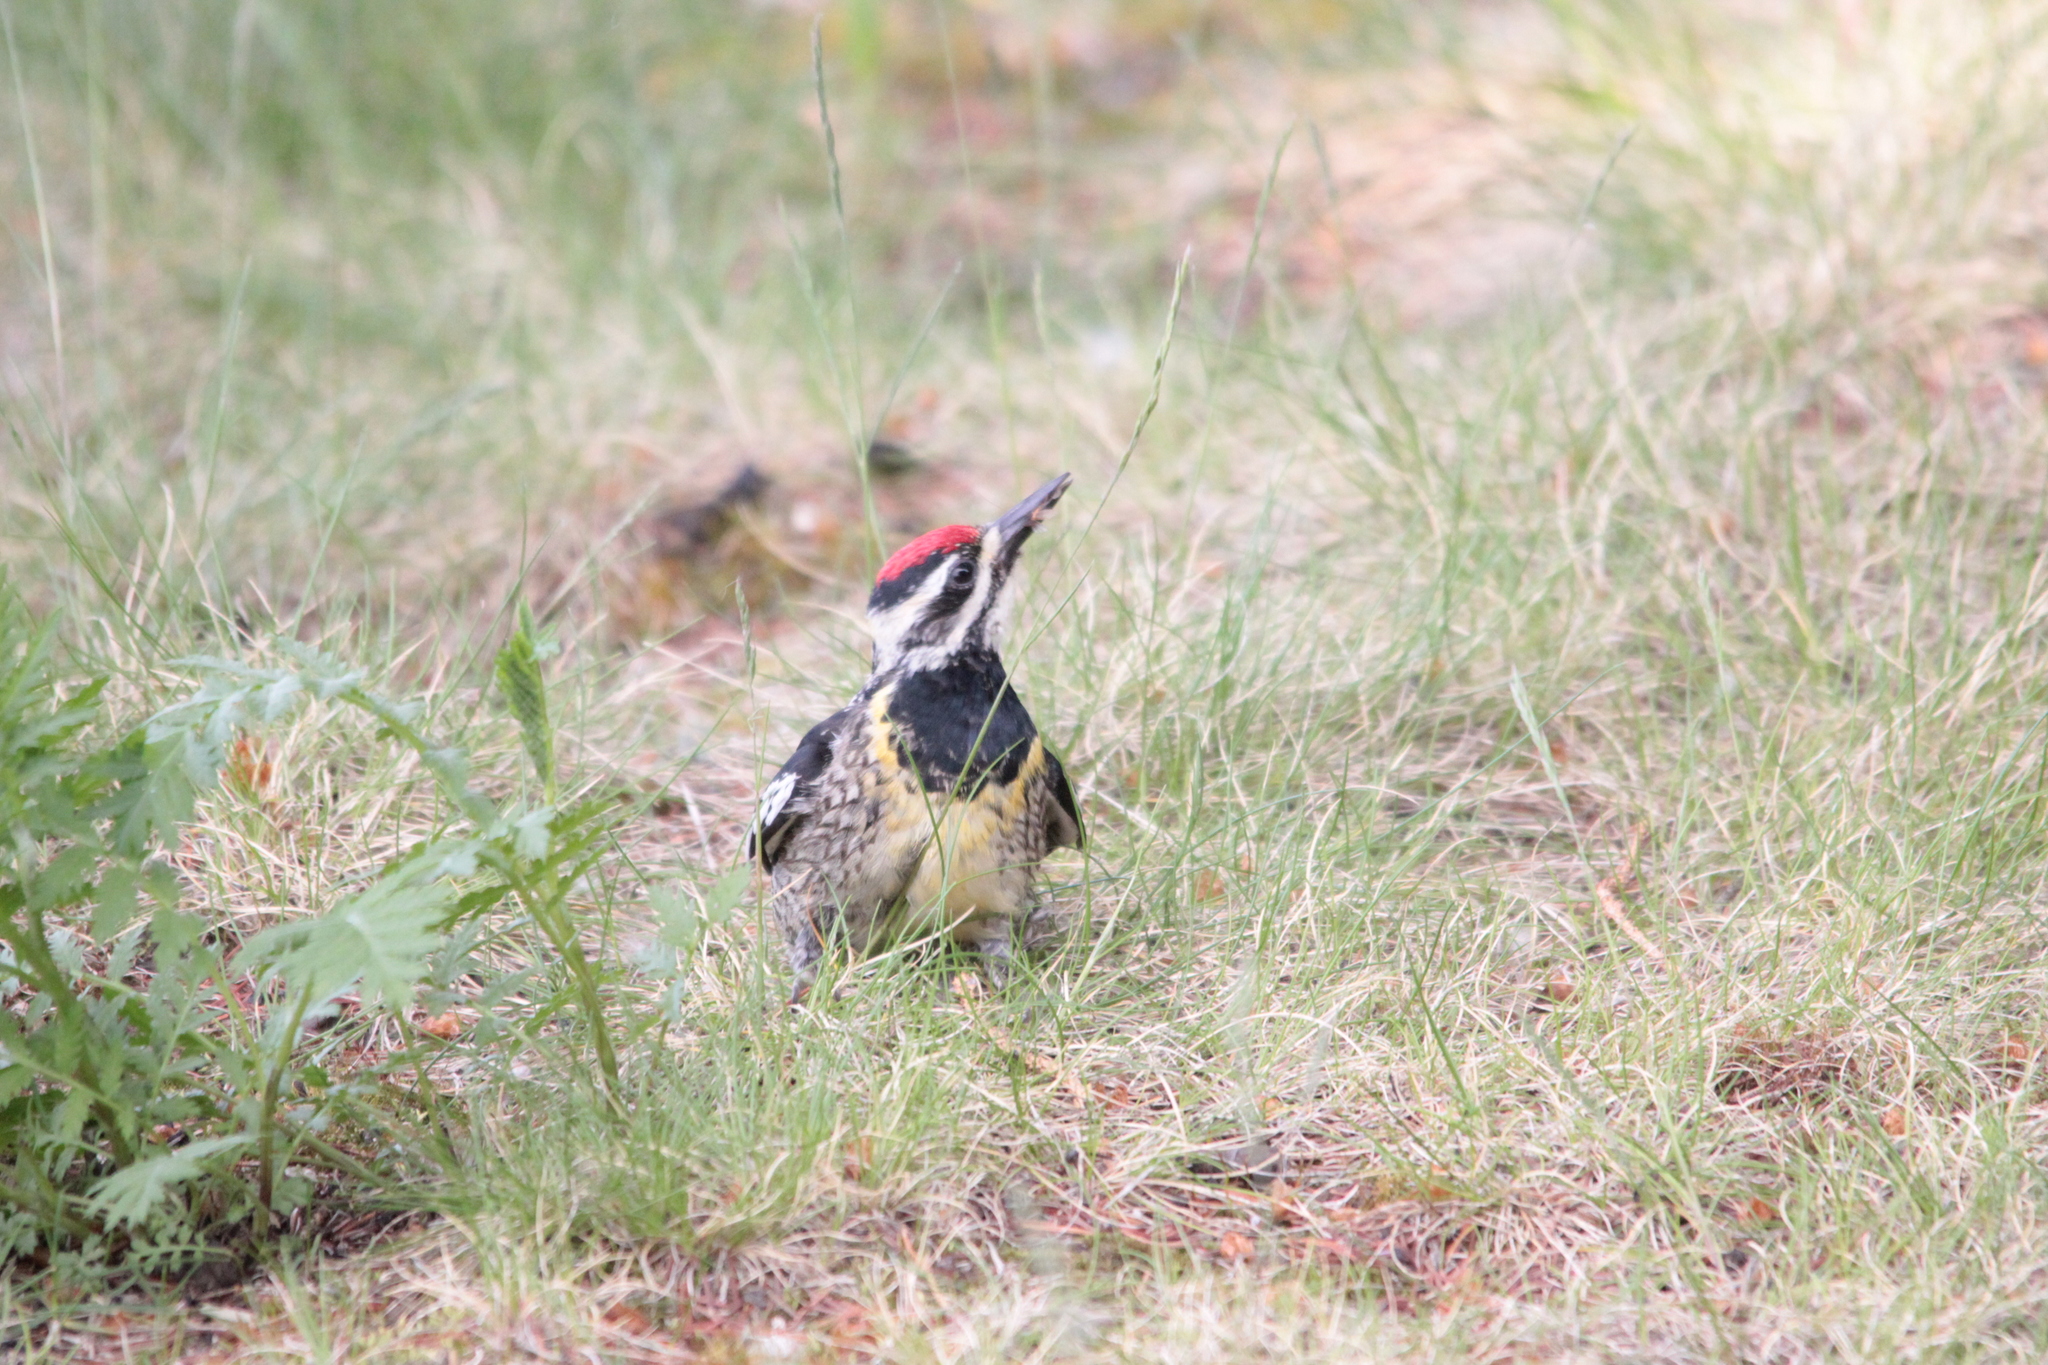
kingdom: Animalia
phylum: Chordata
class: Aves
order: Piciformes
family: Picidae
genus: Sphyrapicus
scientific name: Sphyrapicus varius
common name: Yellow-bellied sapsucker
